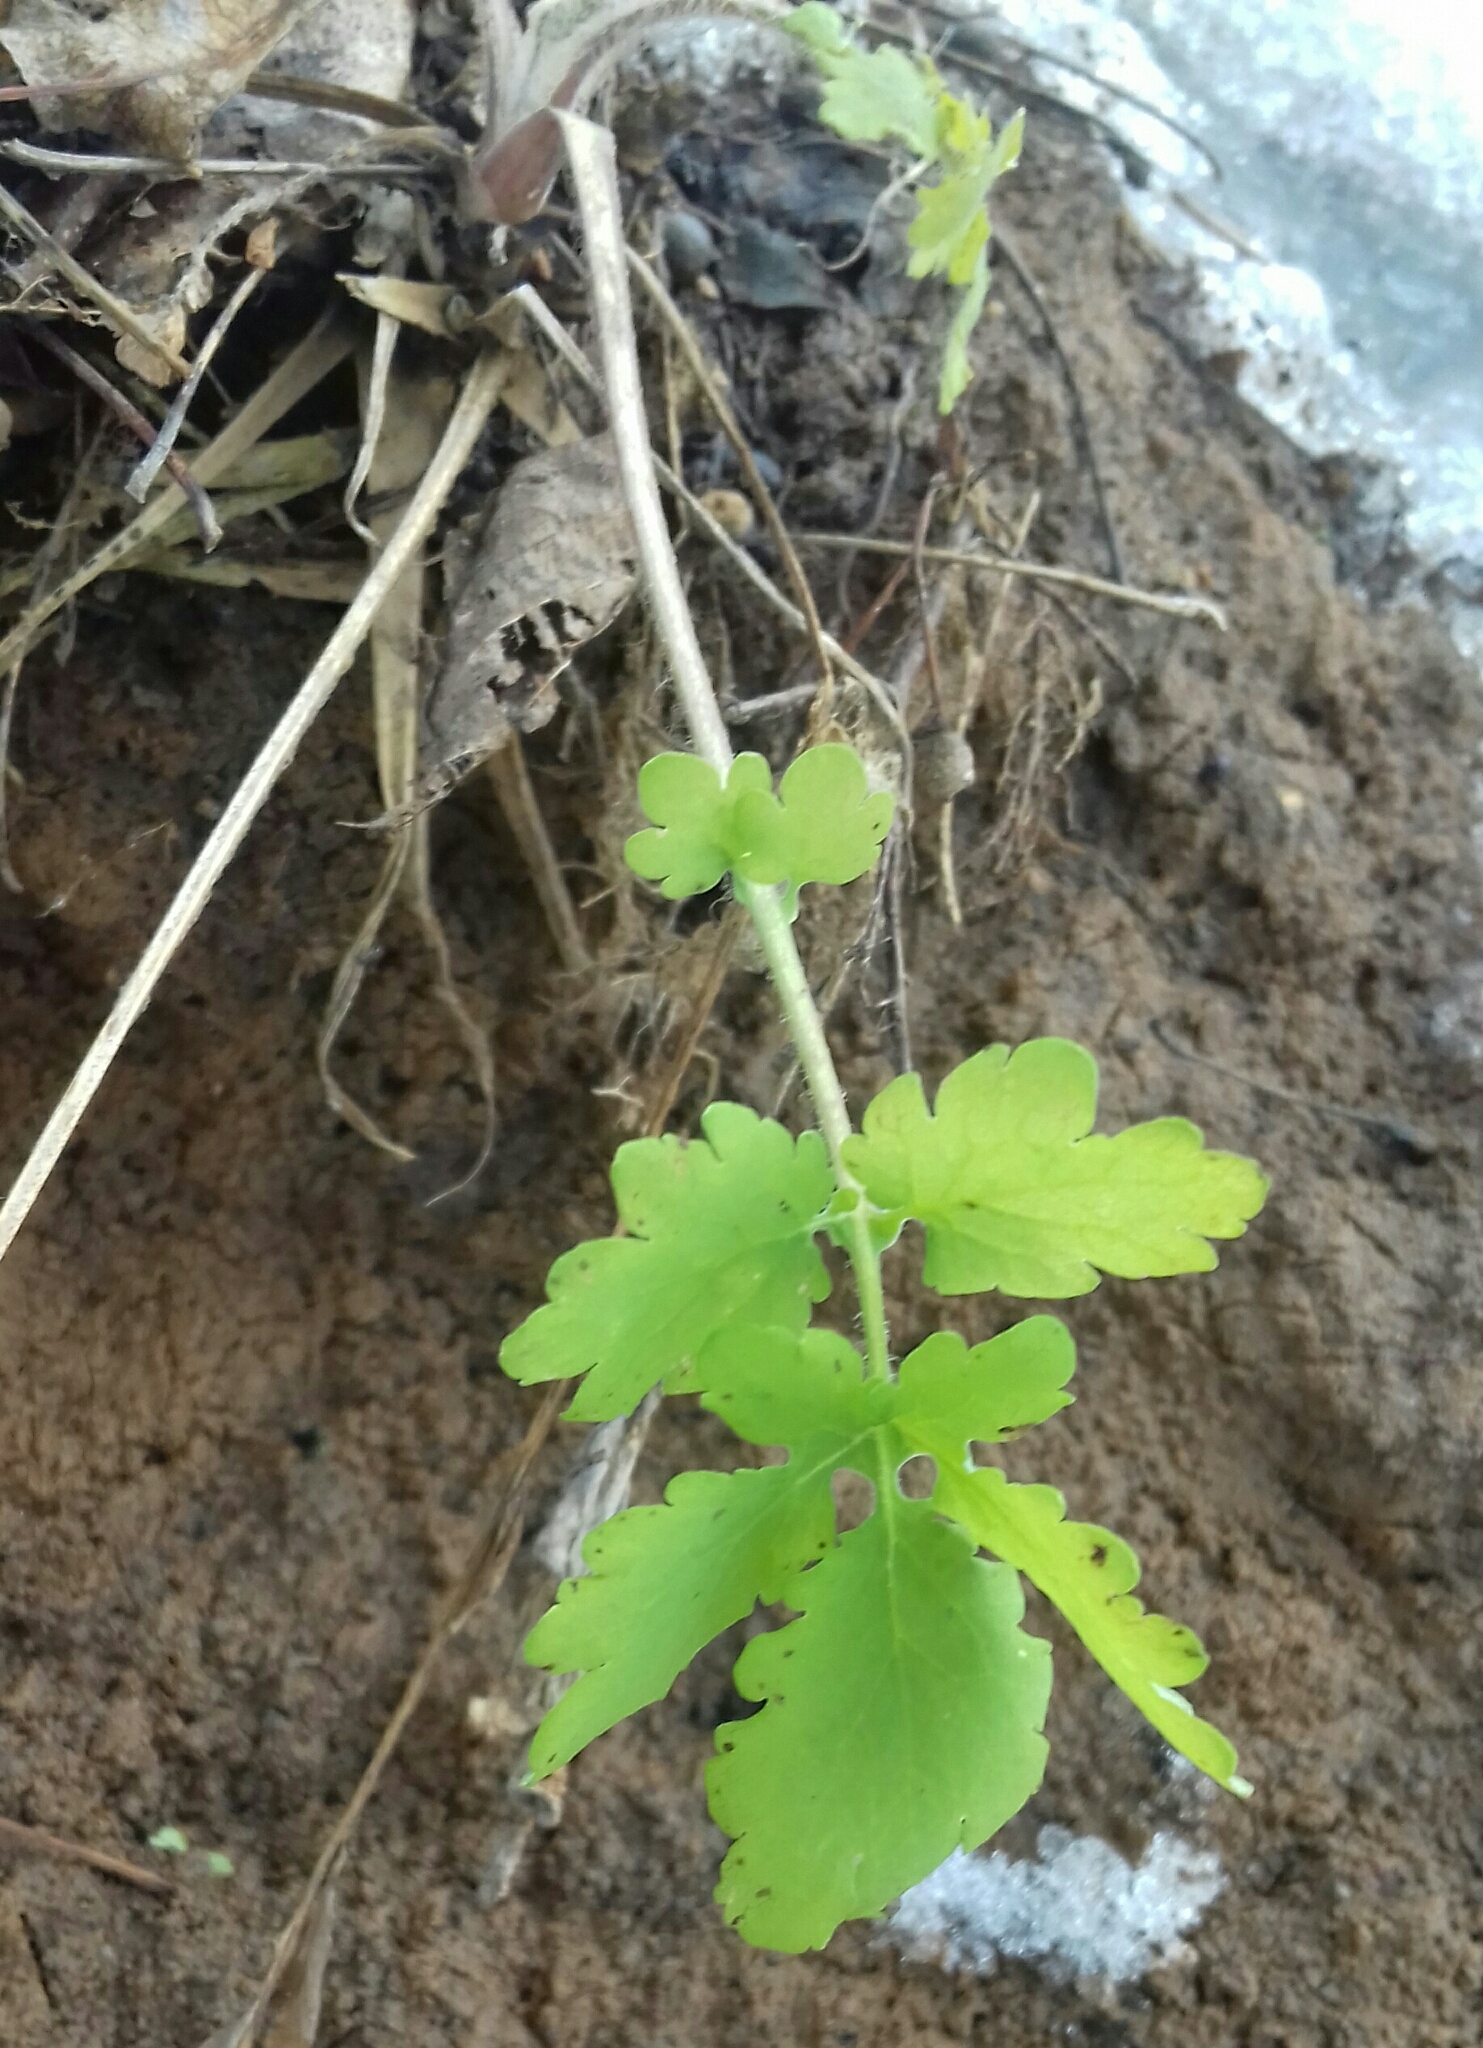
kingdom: Plantae
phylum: Tracheophyta
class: Magnoliopsida
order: Ranunculales
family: Papaveraceae
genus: Chelidonium
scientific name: Chelidonium majus
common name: Greater celandine
